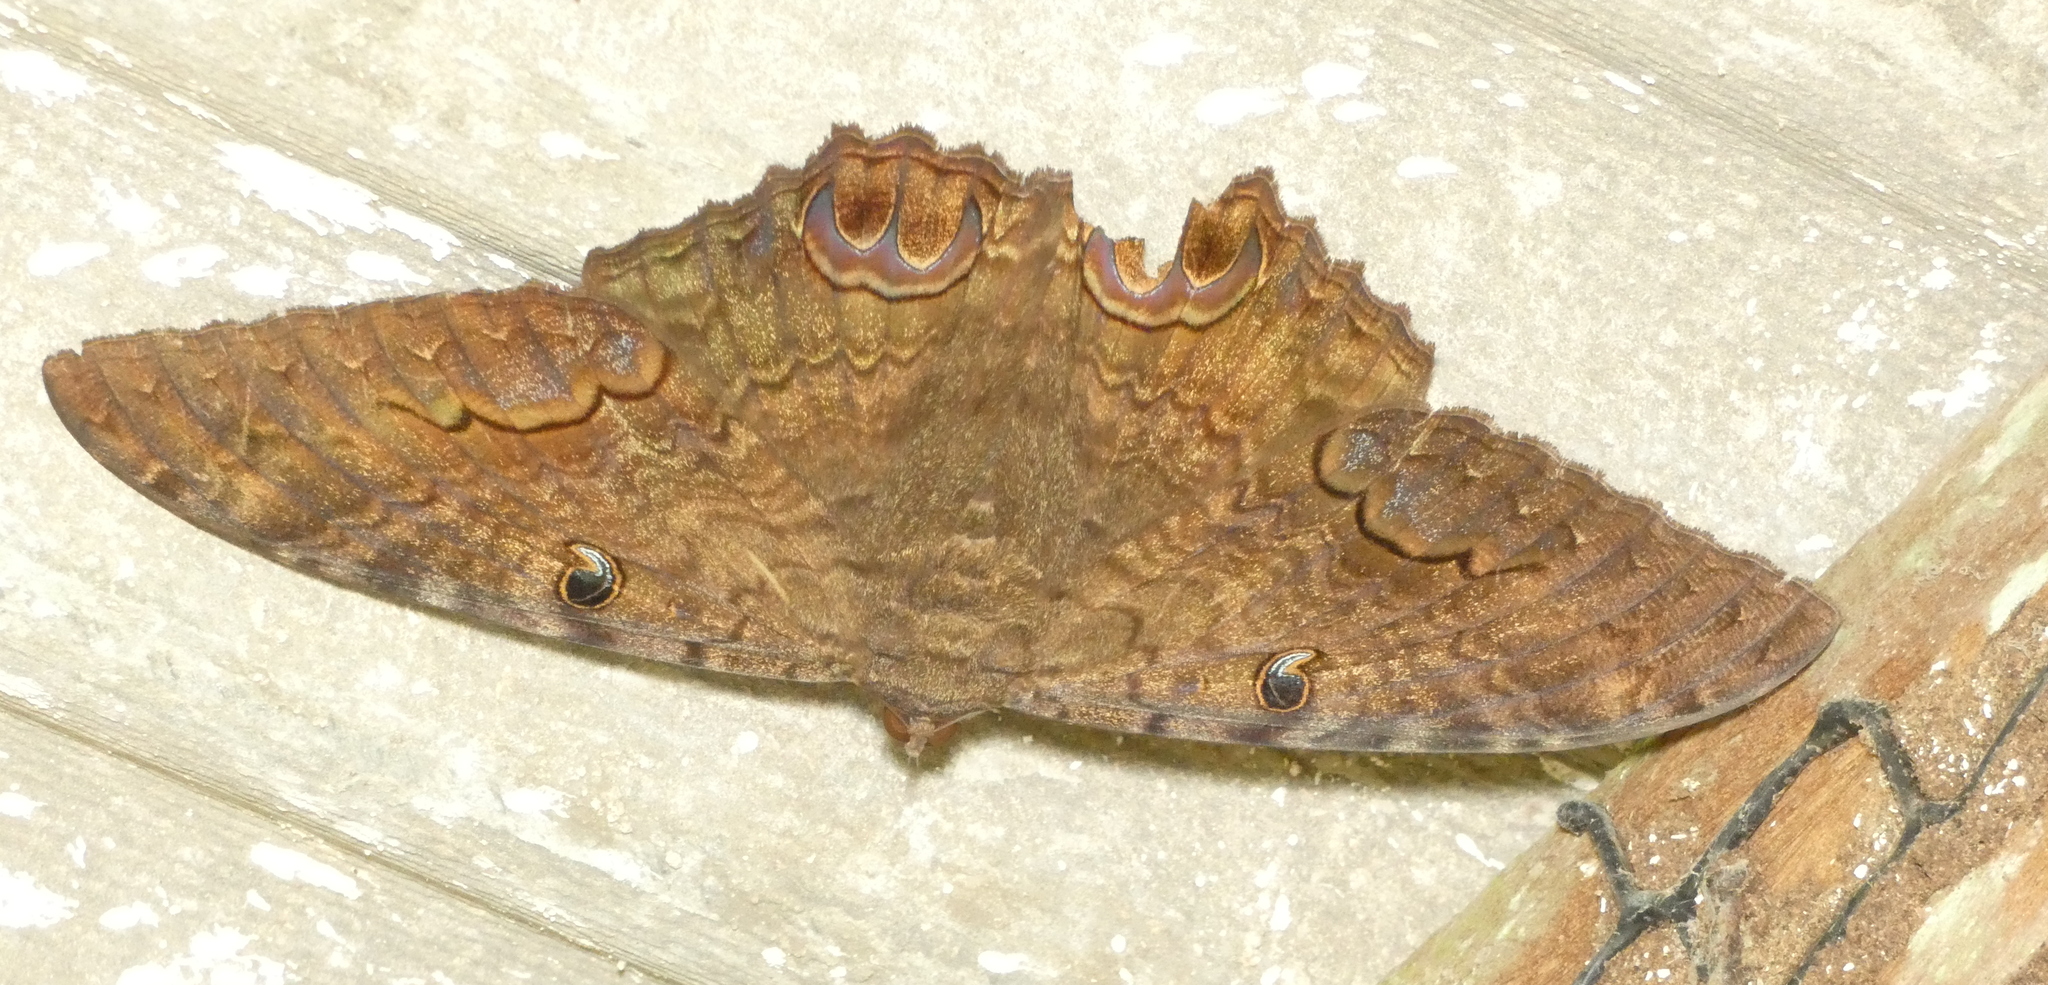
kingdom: Animalia
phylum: Arthropoda
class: Insecta
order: Lepidoptera
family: Erebidae
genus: Ascalapha
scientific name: Ascalapha odorata
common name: Black witch
